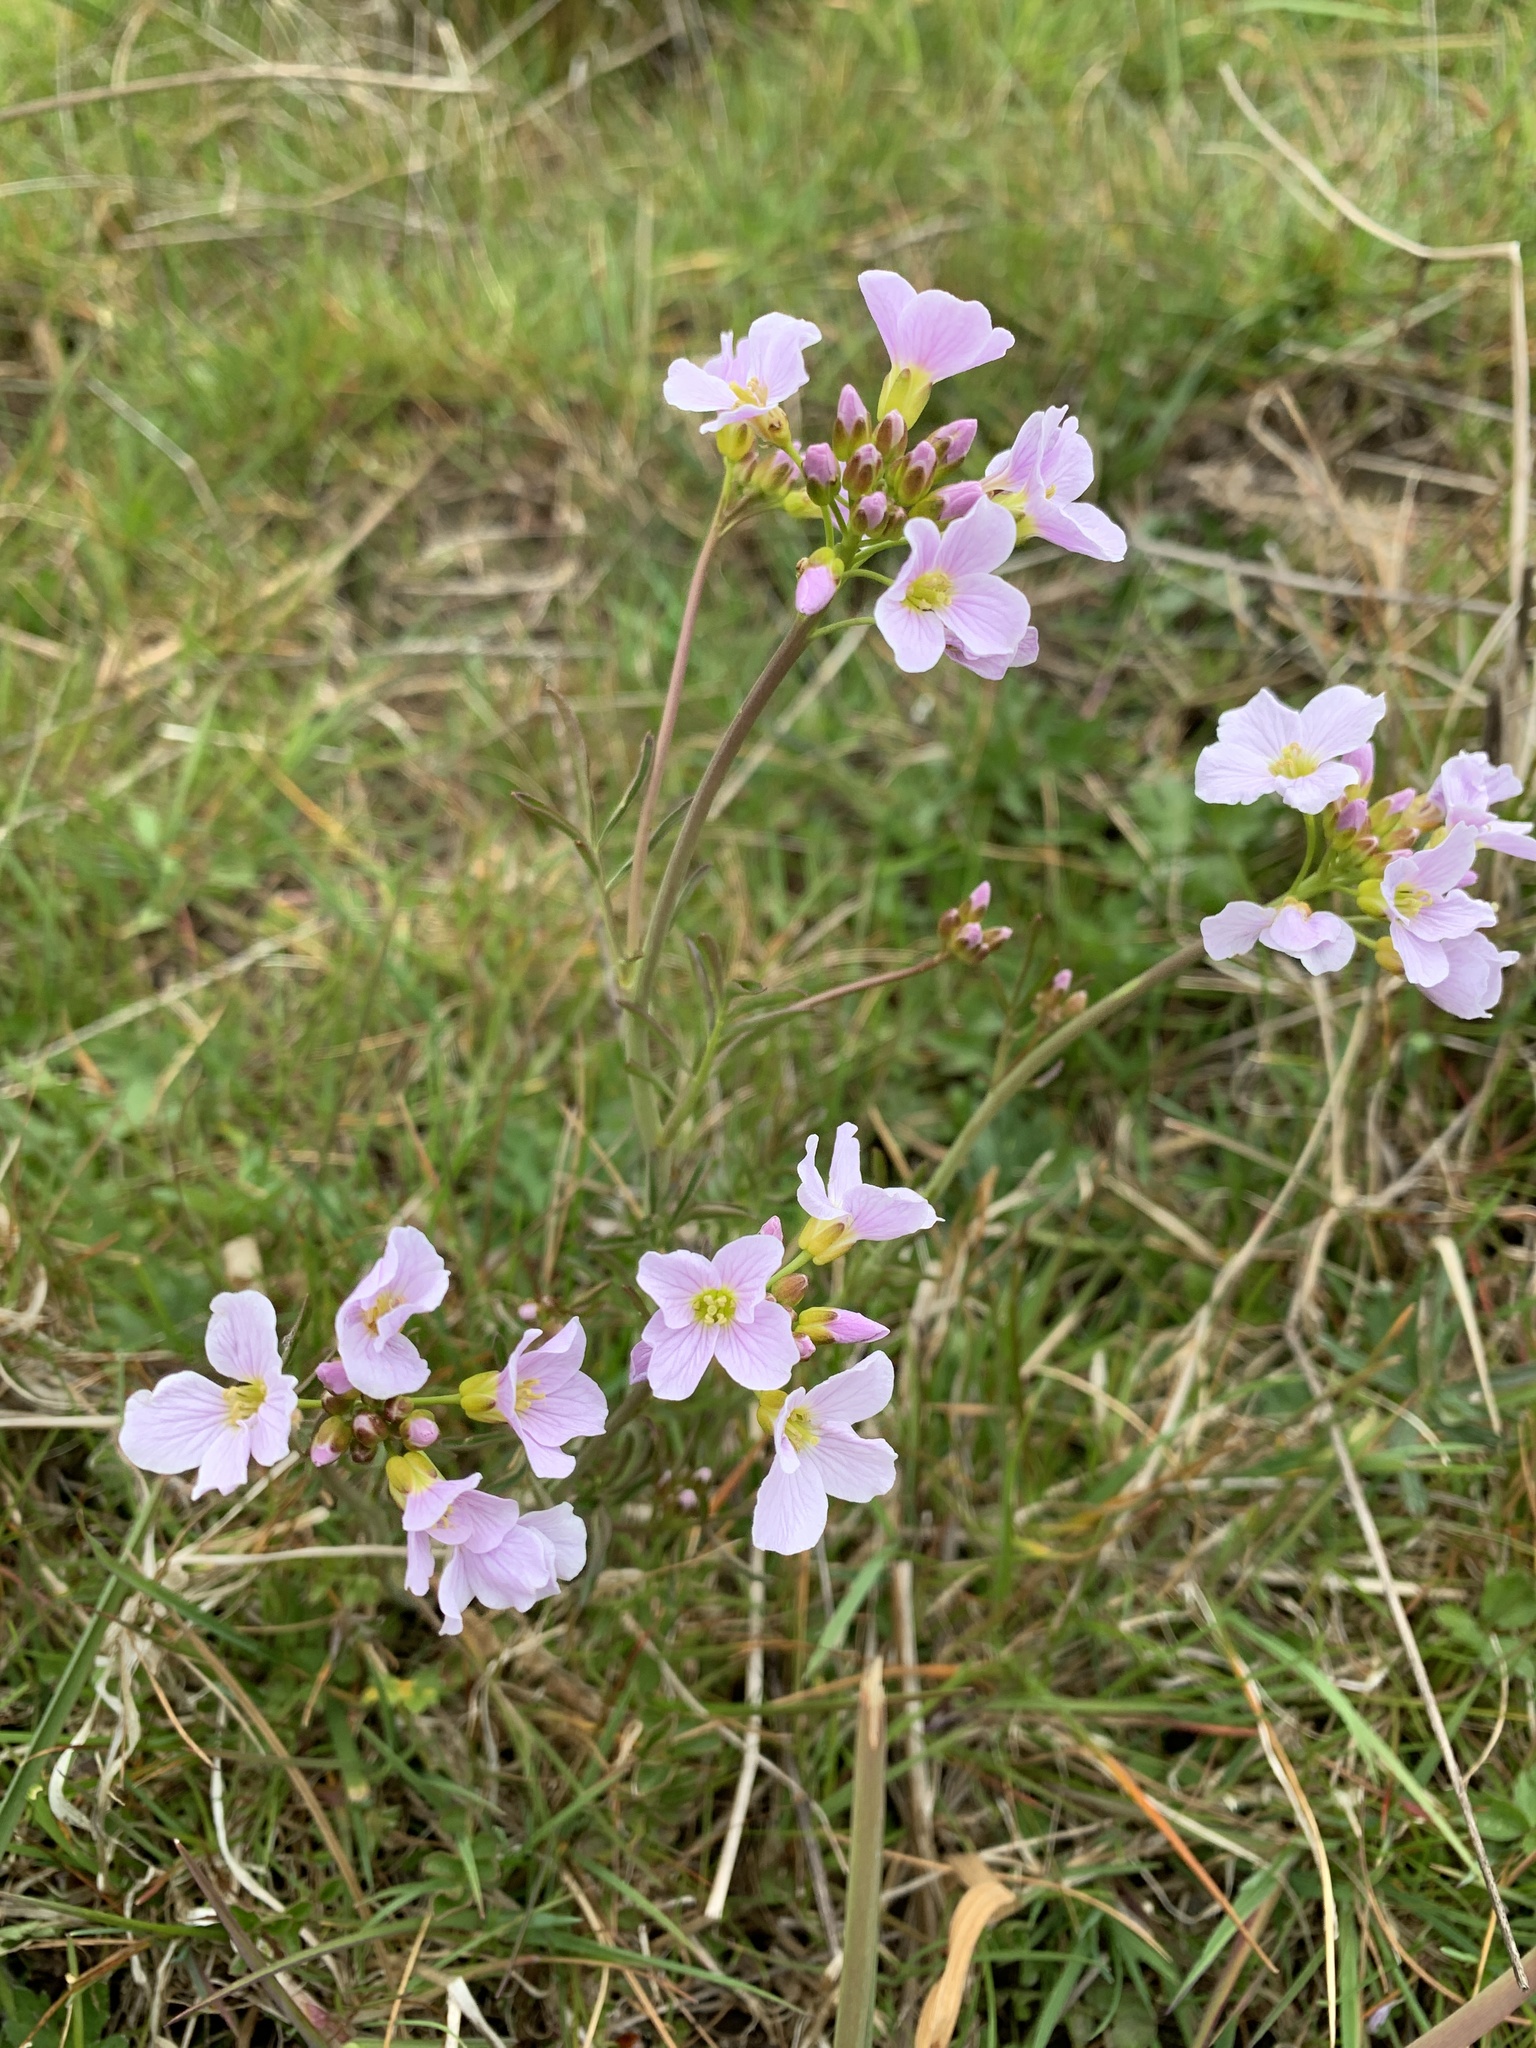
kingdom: Plantae
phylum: Tracheophyta
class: Magnoliopsida
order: Brassicales
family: Brassicaceae
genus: Cardamine
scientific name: Cardamine pratensis
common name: Cuckoo flower
